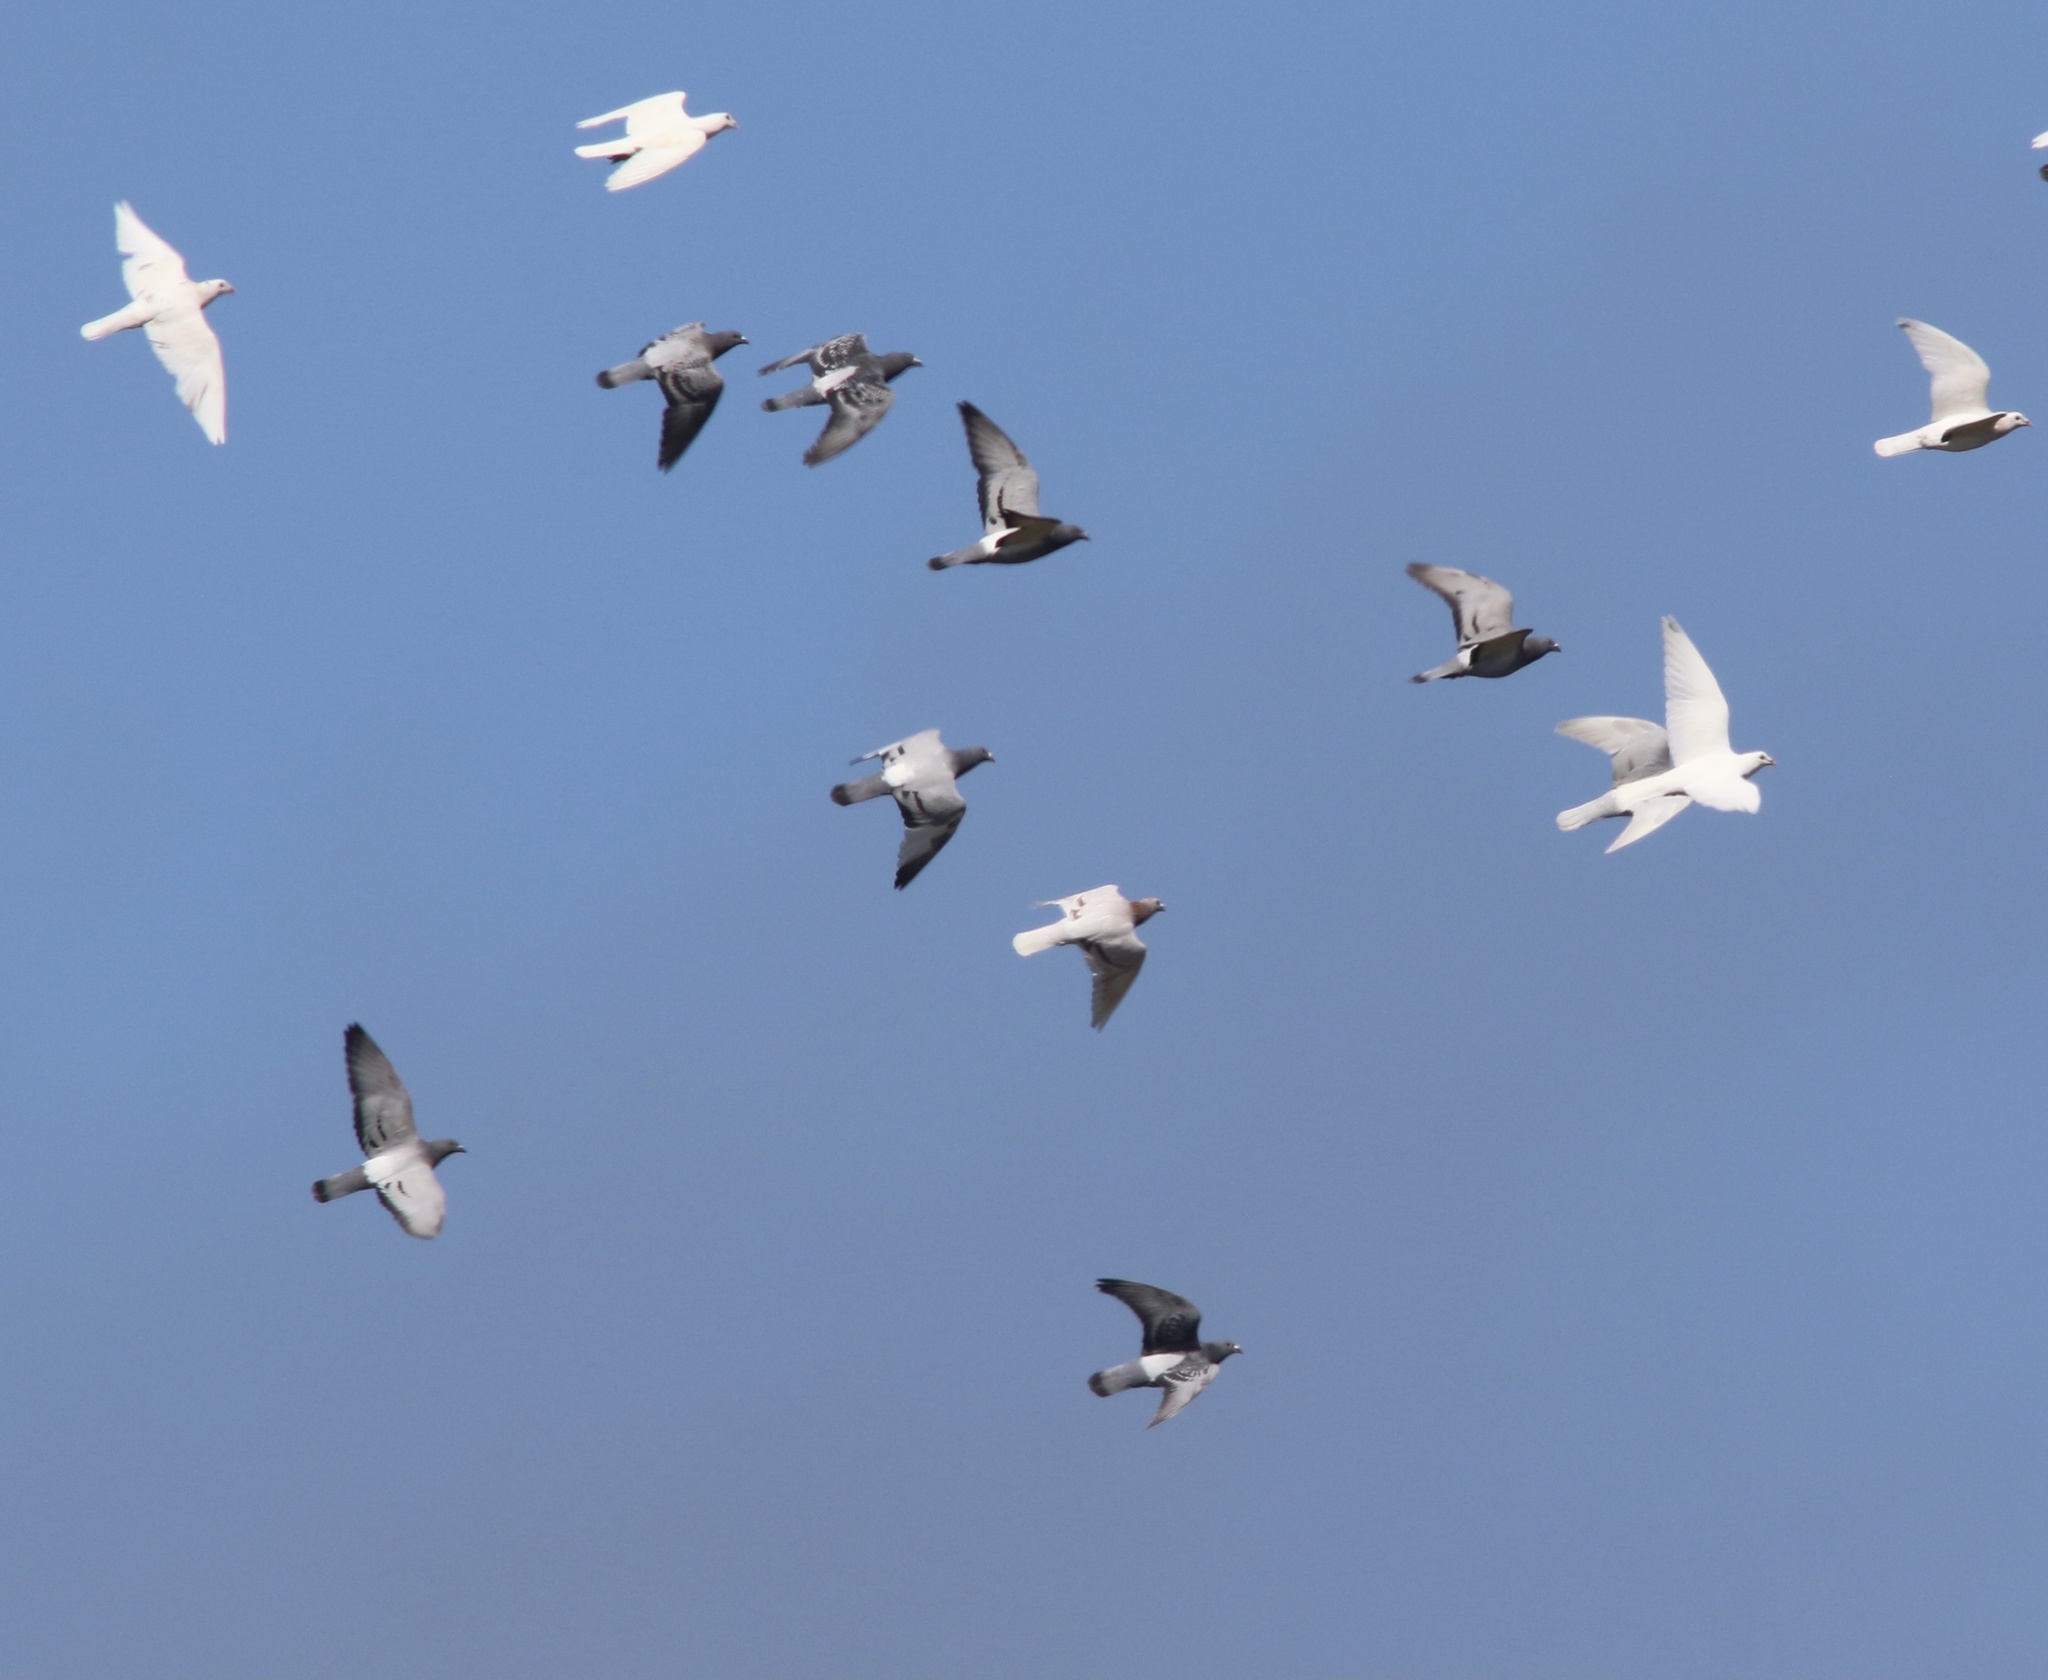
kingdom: Animalia
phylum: Chordata
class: Aves
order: Columbiformes
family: Columbidae
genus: Columba
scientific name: Columba livia
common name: Rock pigeon
